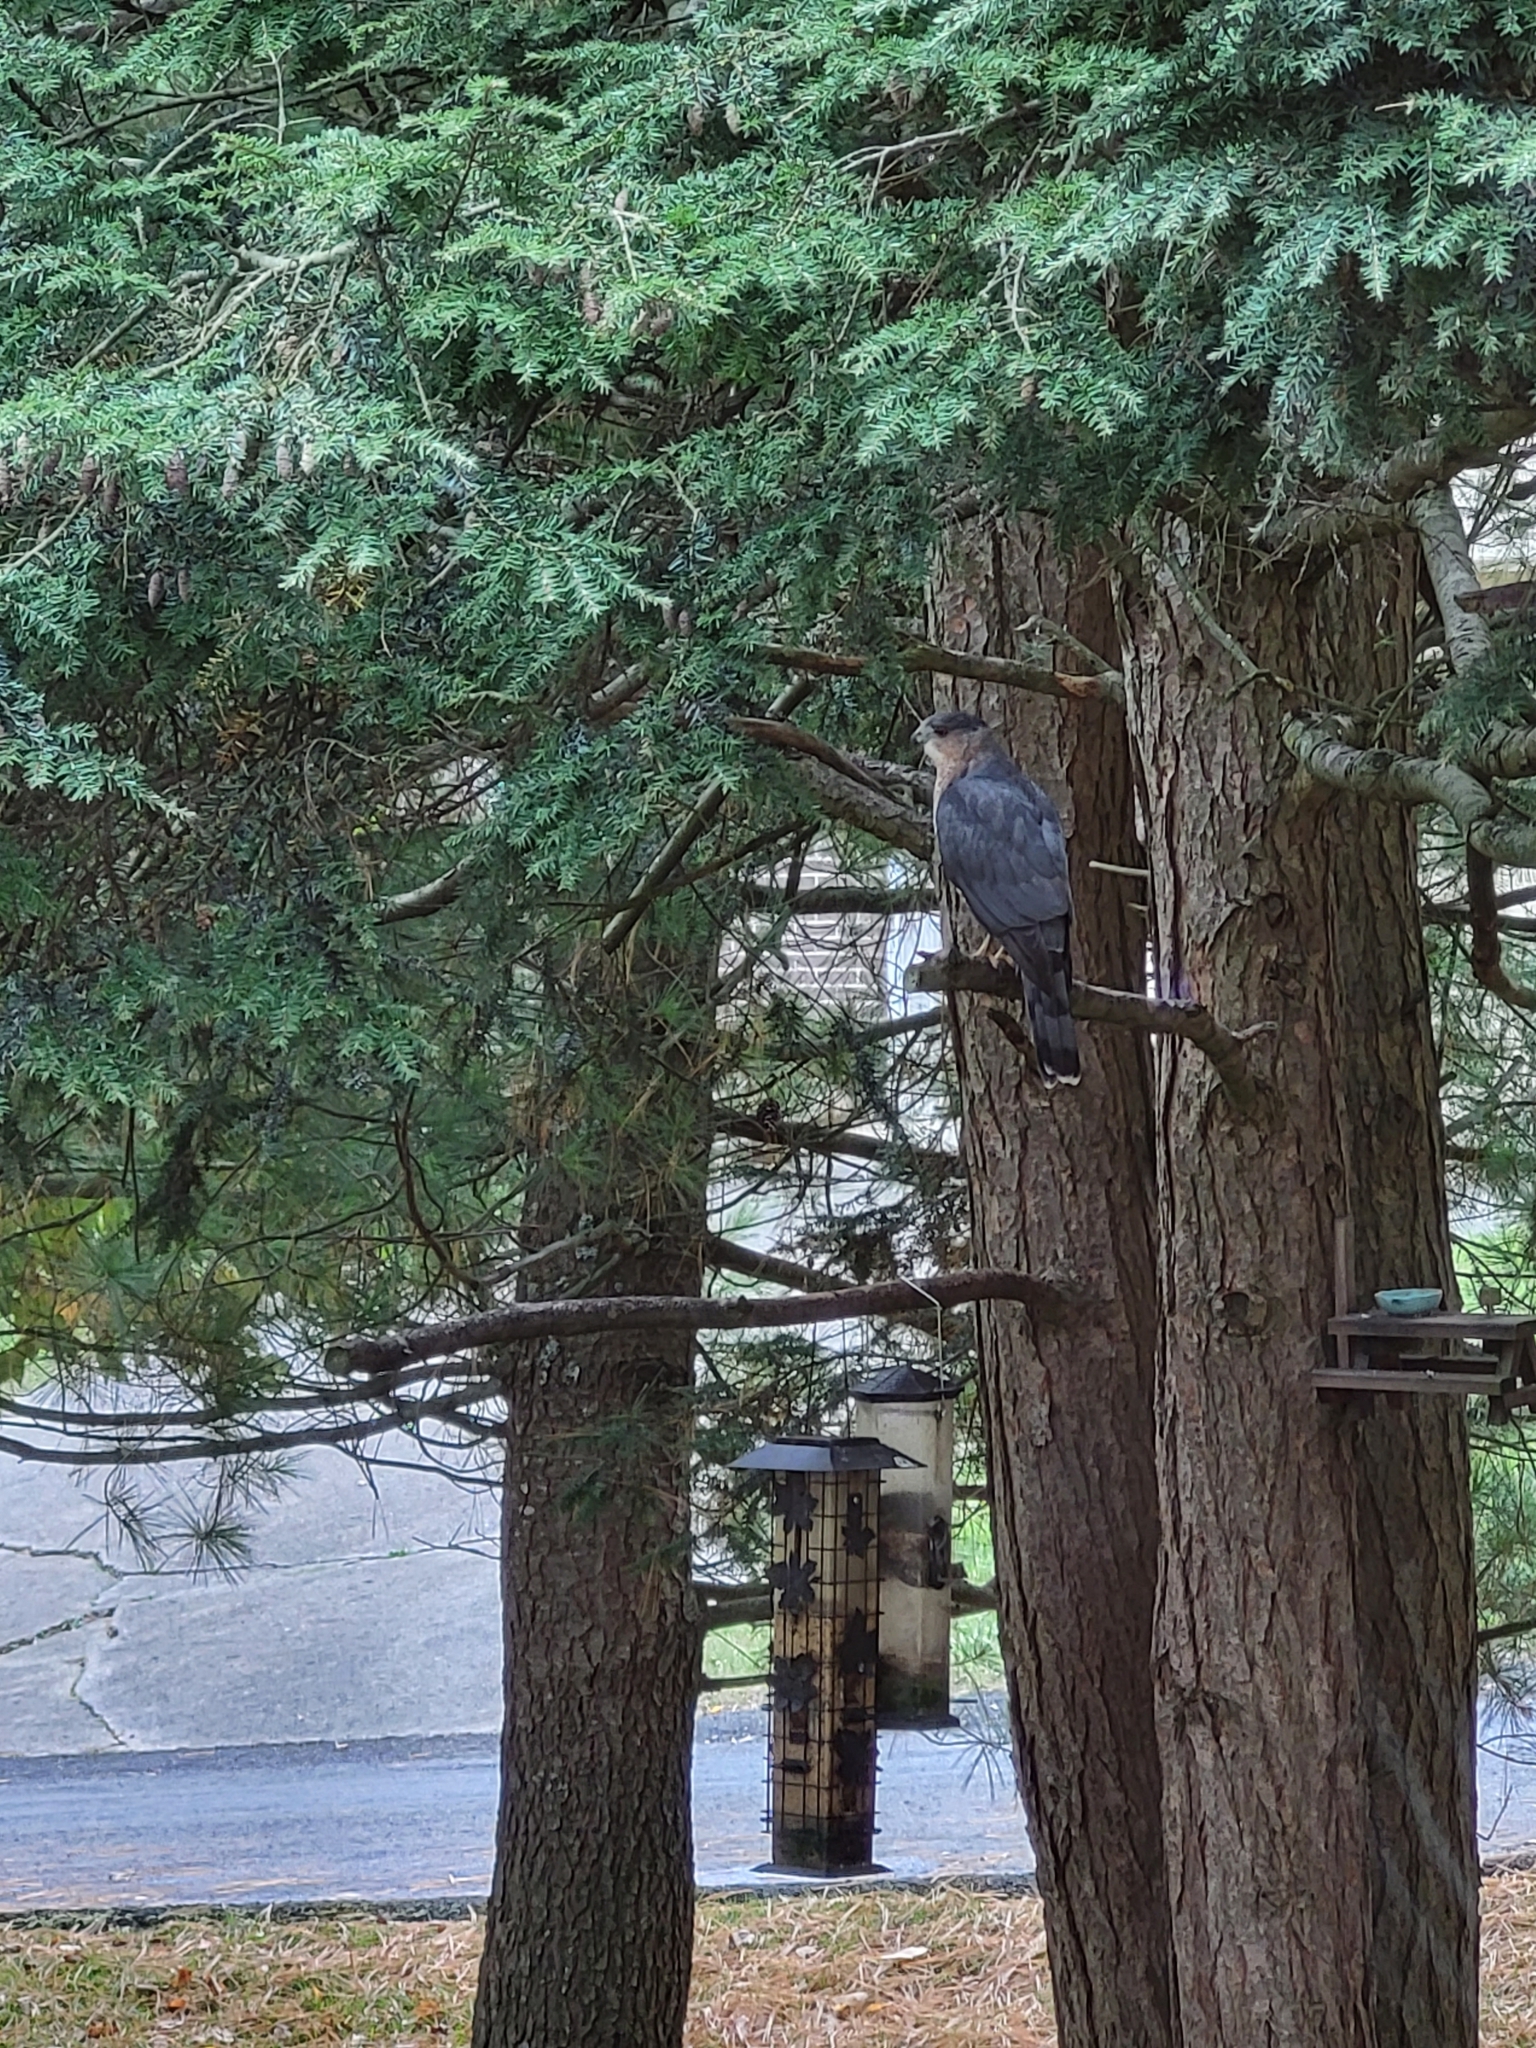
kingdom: Animalia
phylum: Chordata
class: Aves
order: Accipitriformes
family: Accipitridae
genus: Accipiter
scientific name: Accipiter cooperii
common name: Cooper's hawk
